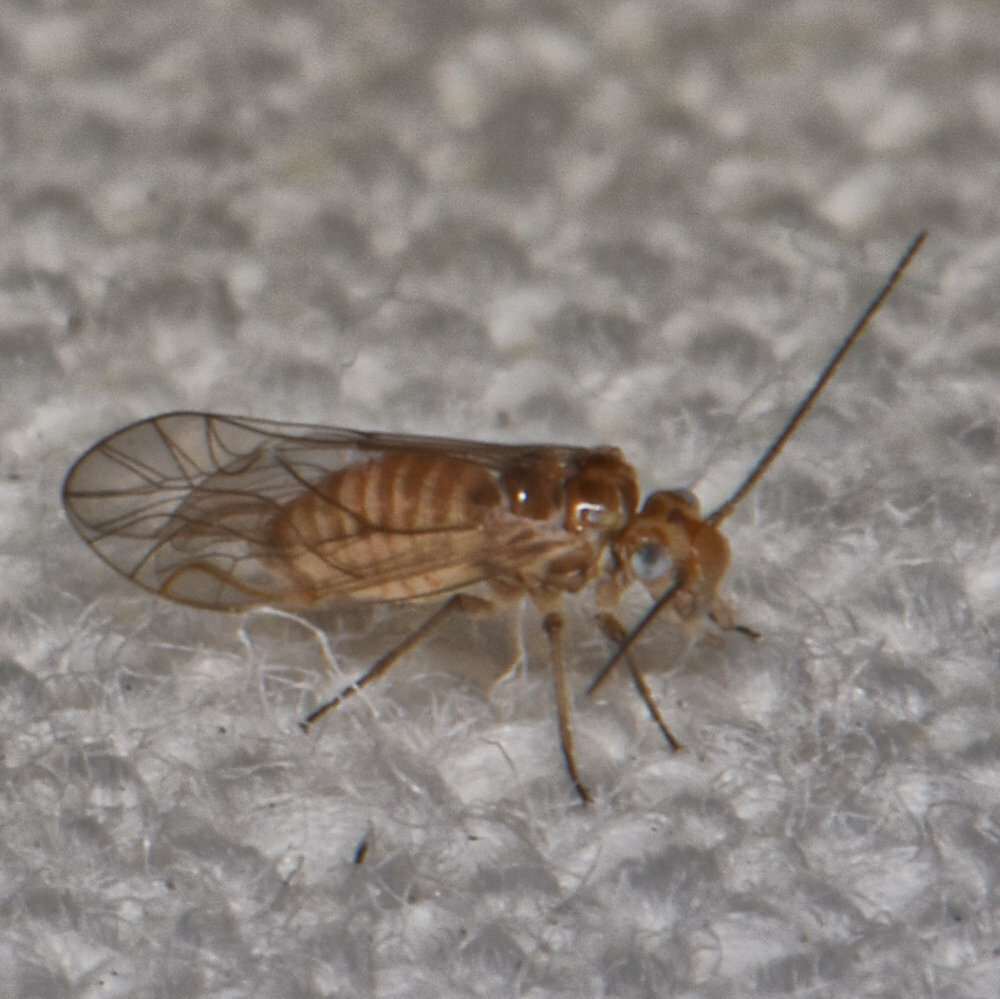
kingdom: Animalia
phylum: Arthropoda
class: Insecta
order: Psocodea
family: Elipsocidae
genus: Cuneopalpus
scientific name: Cuneopalpus cyanops
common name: Booklice
